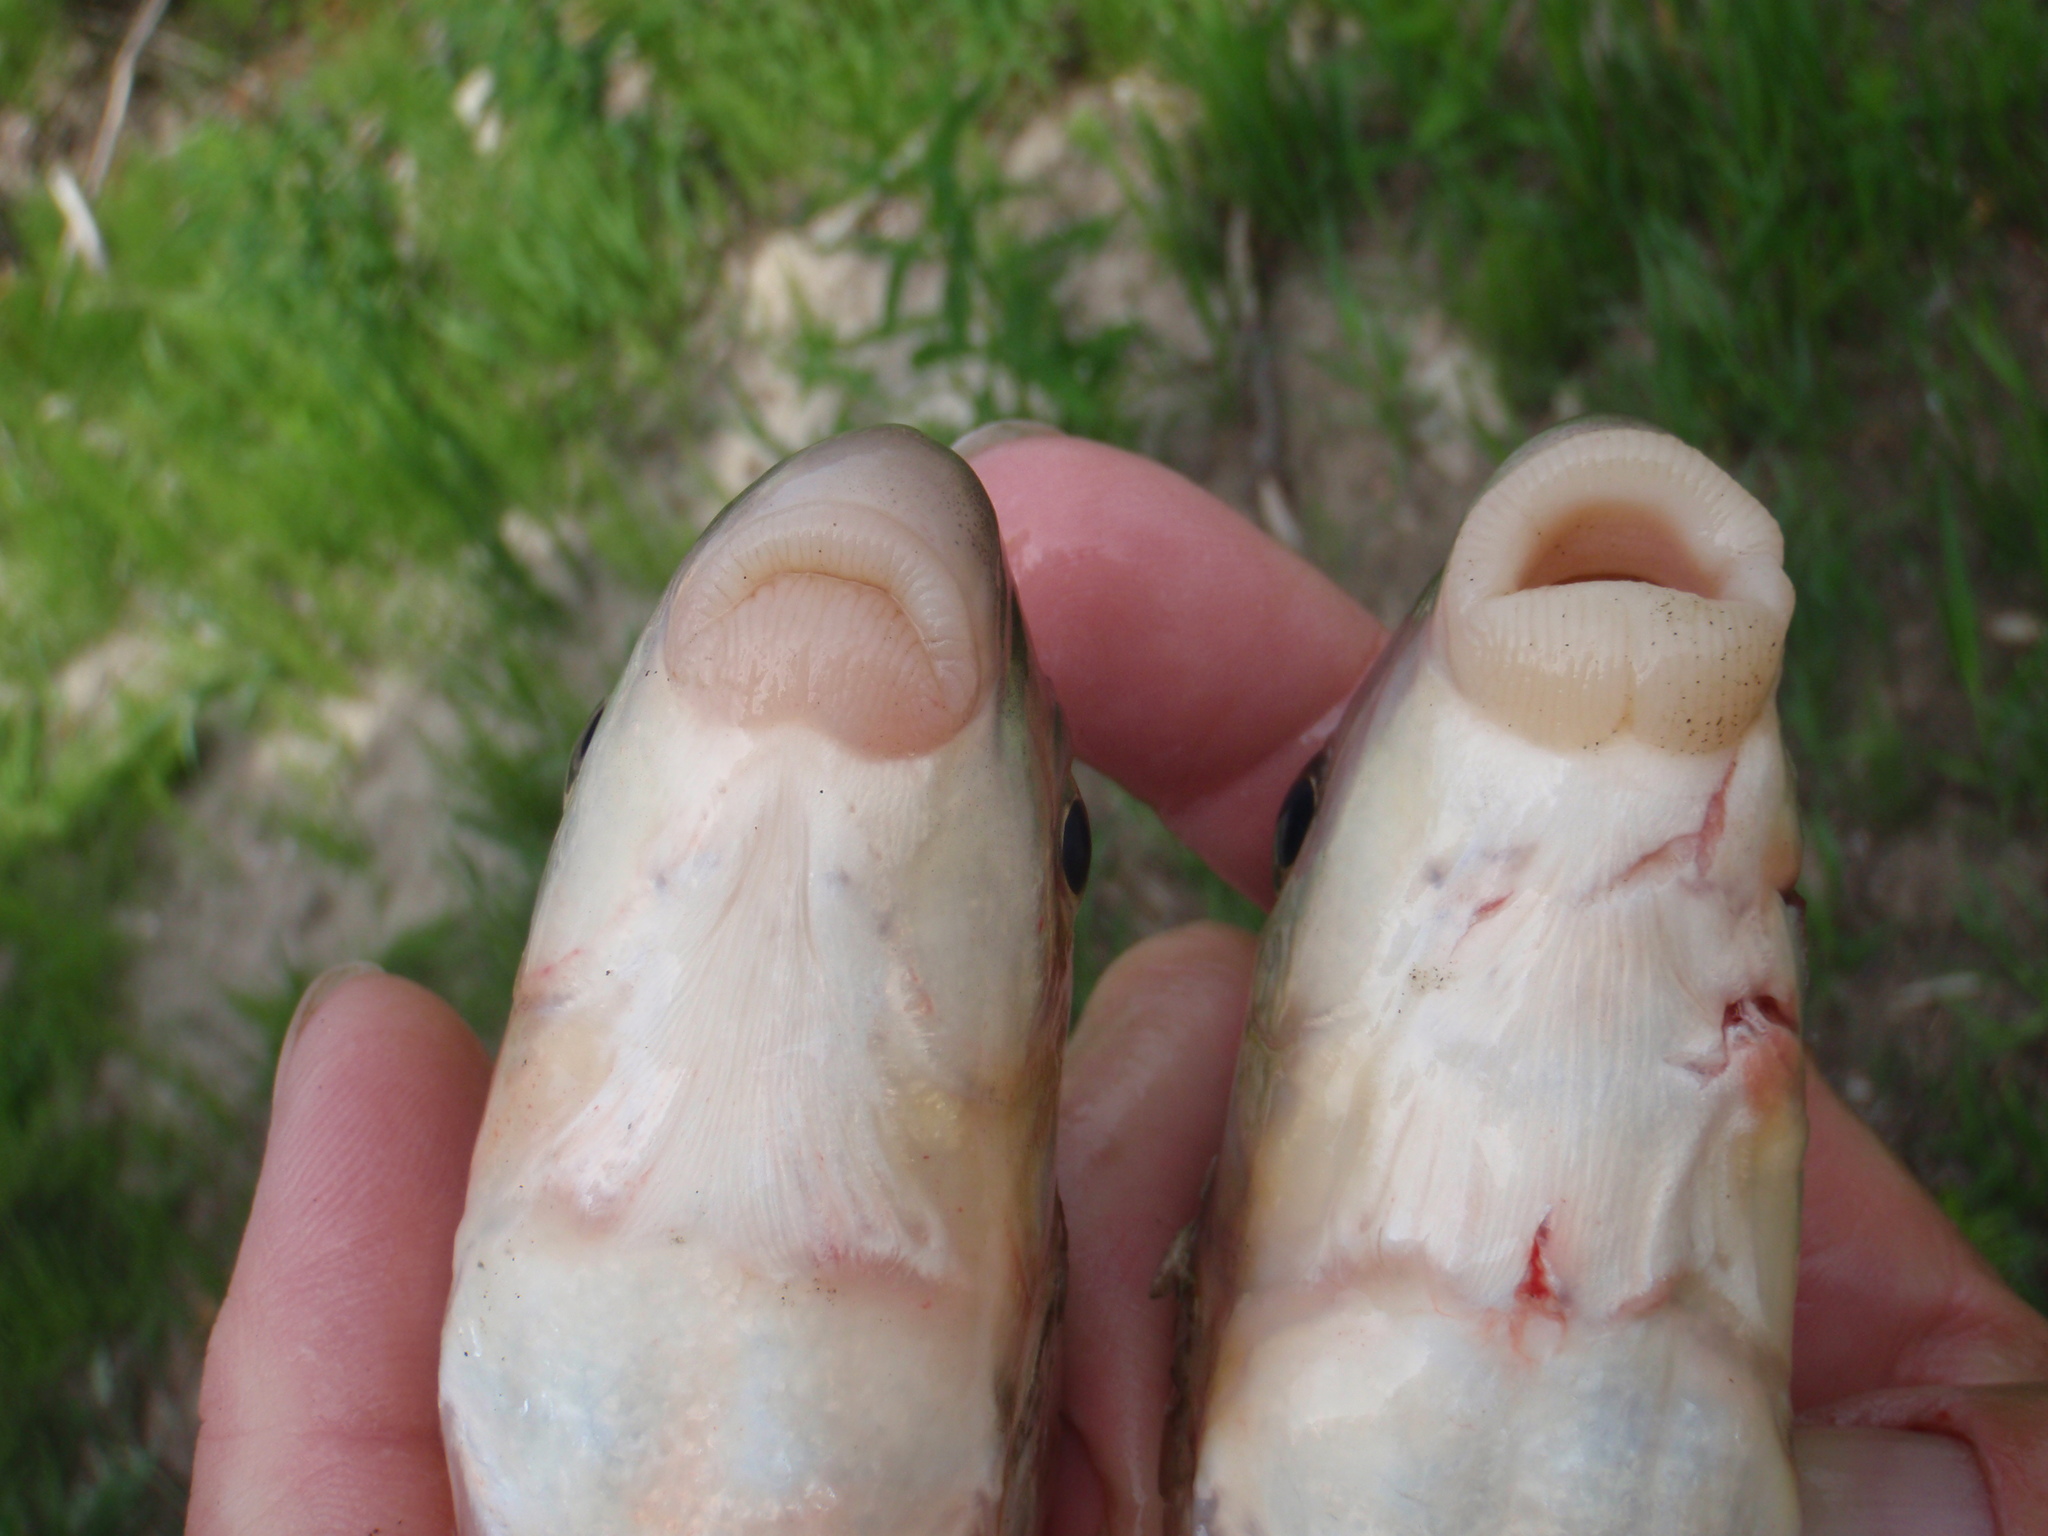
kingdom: Animalia
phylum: Chordata
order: Cypriniformes
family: Catostomidae
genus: Moxostoma
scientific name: Moxostoma macrolepidotum
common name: Shorthead redhorse
